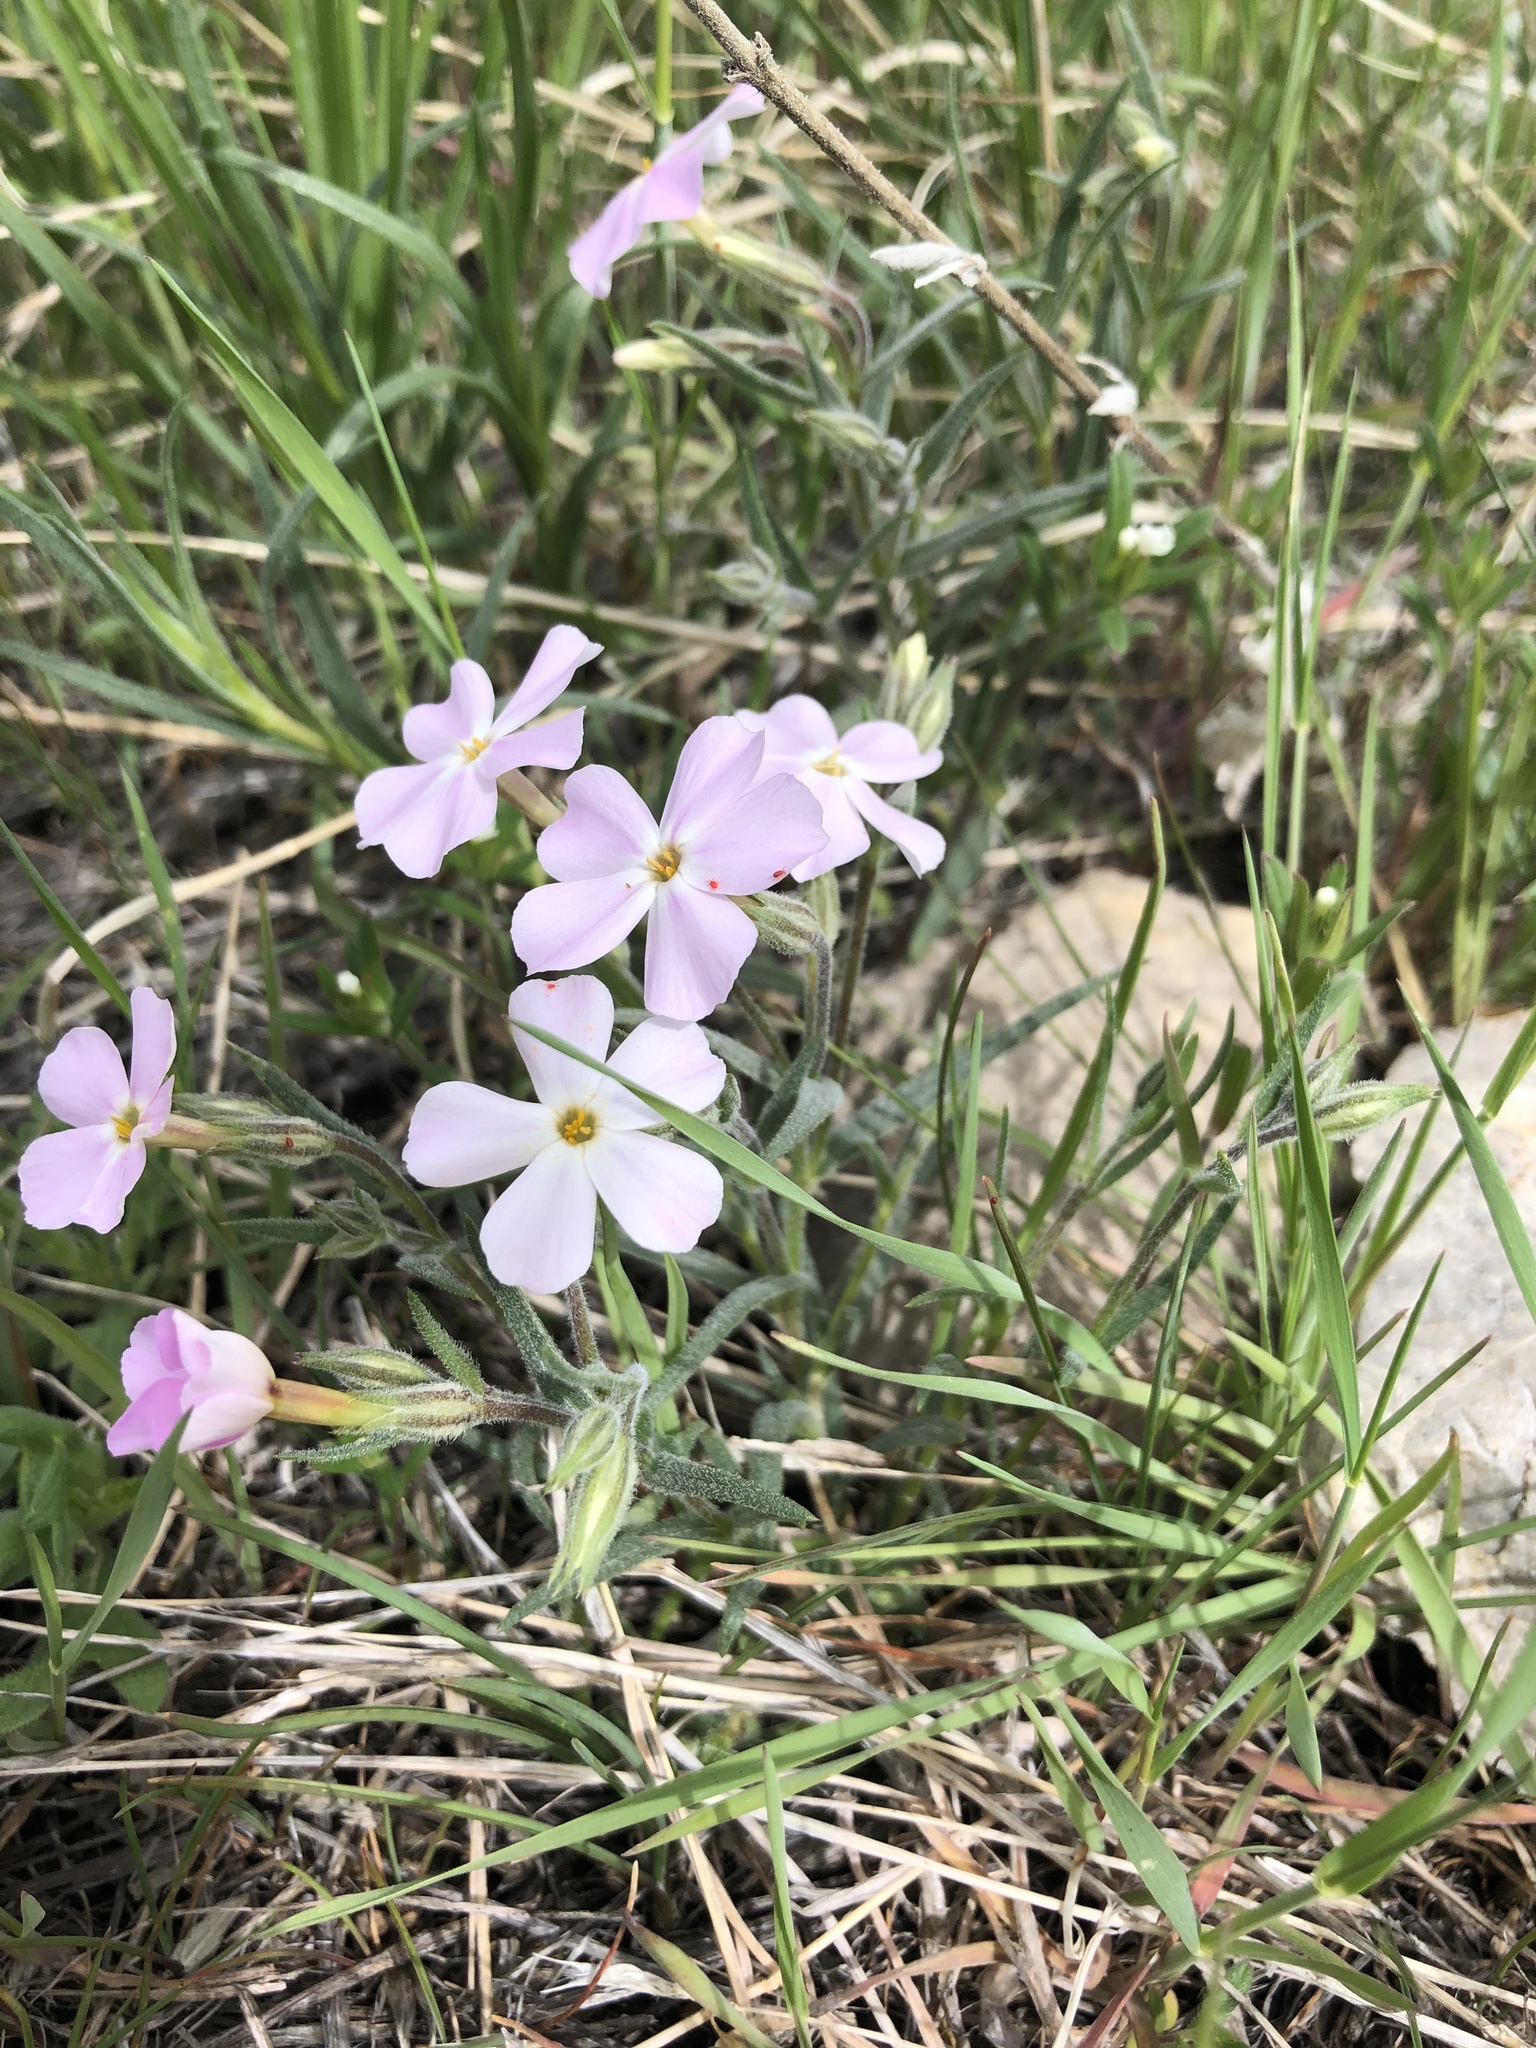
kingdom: Plantae
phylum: Tracheophyta
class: Magnoliopsida
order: Ericales
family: Polemoniaceae
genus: Phlox
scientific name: Phlox longifolia
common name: Longleaf phlox
